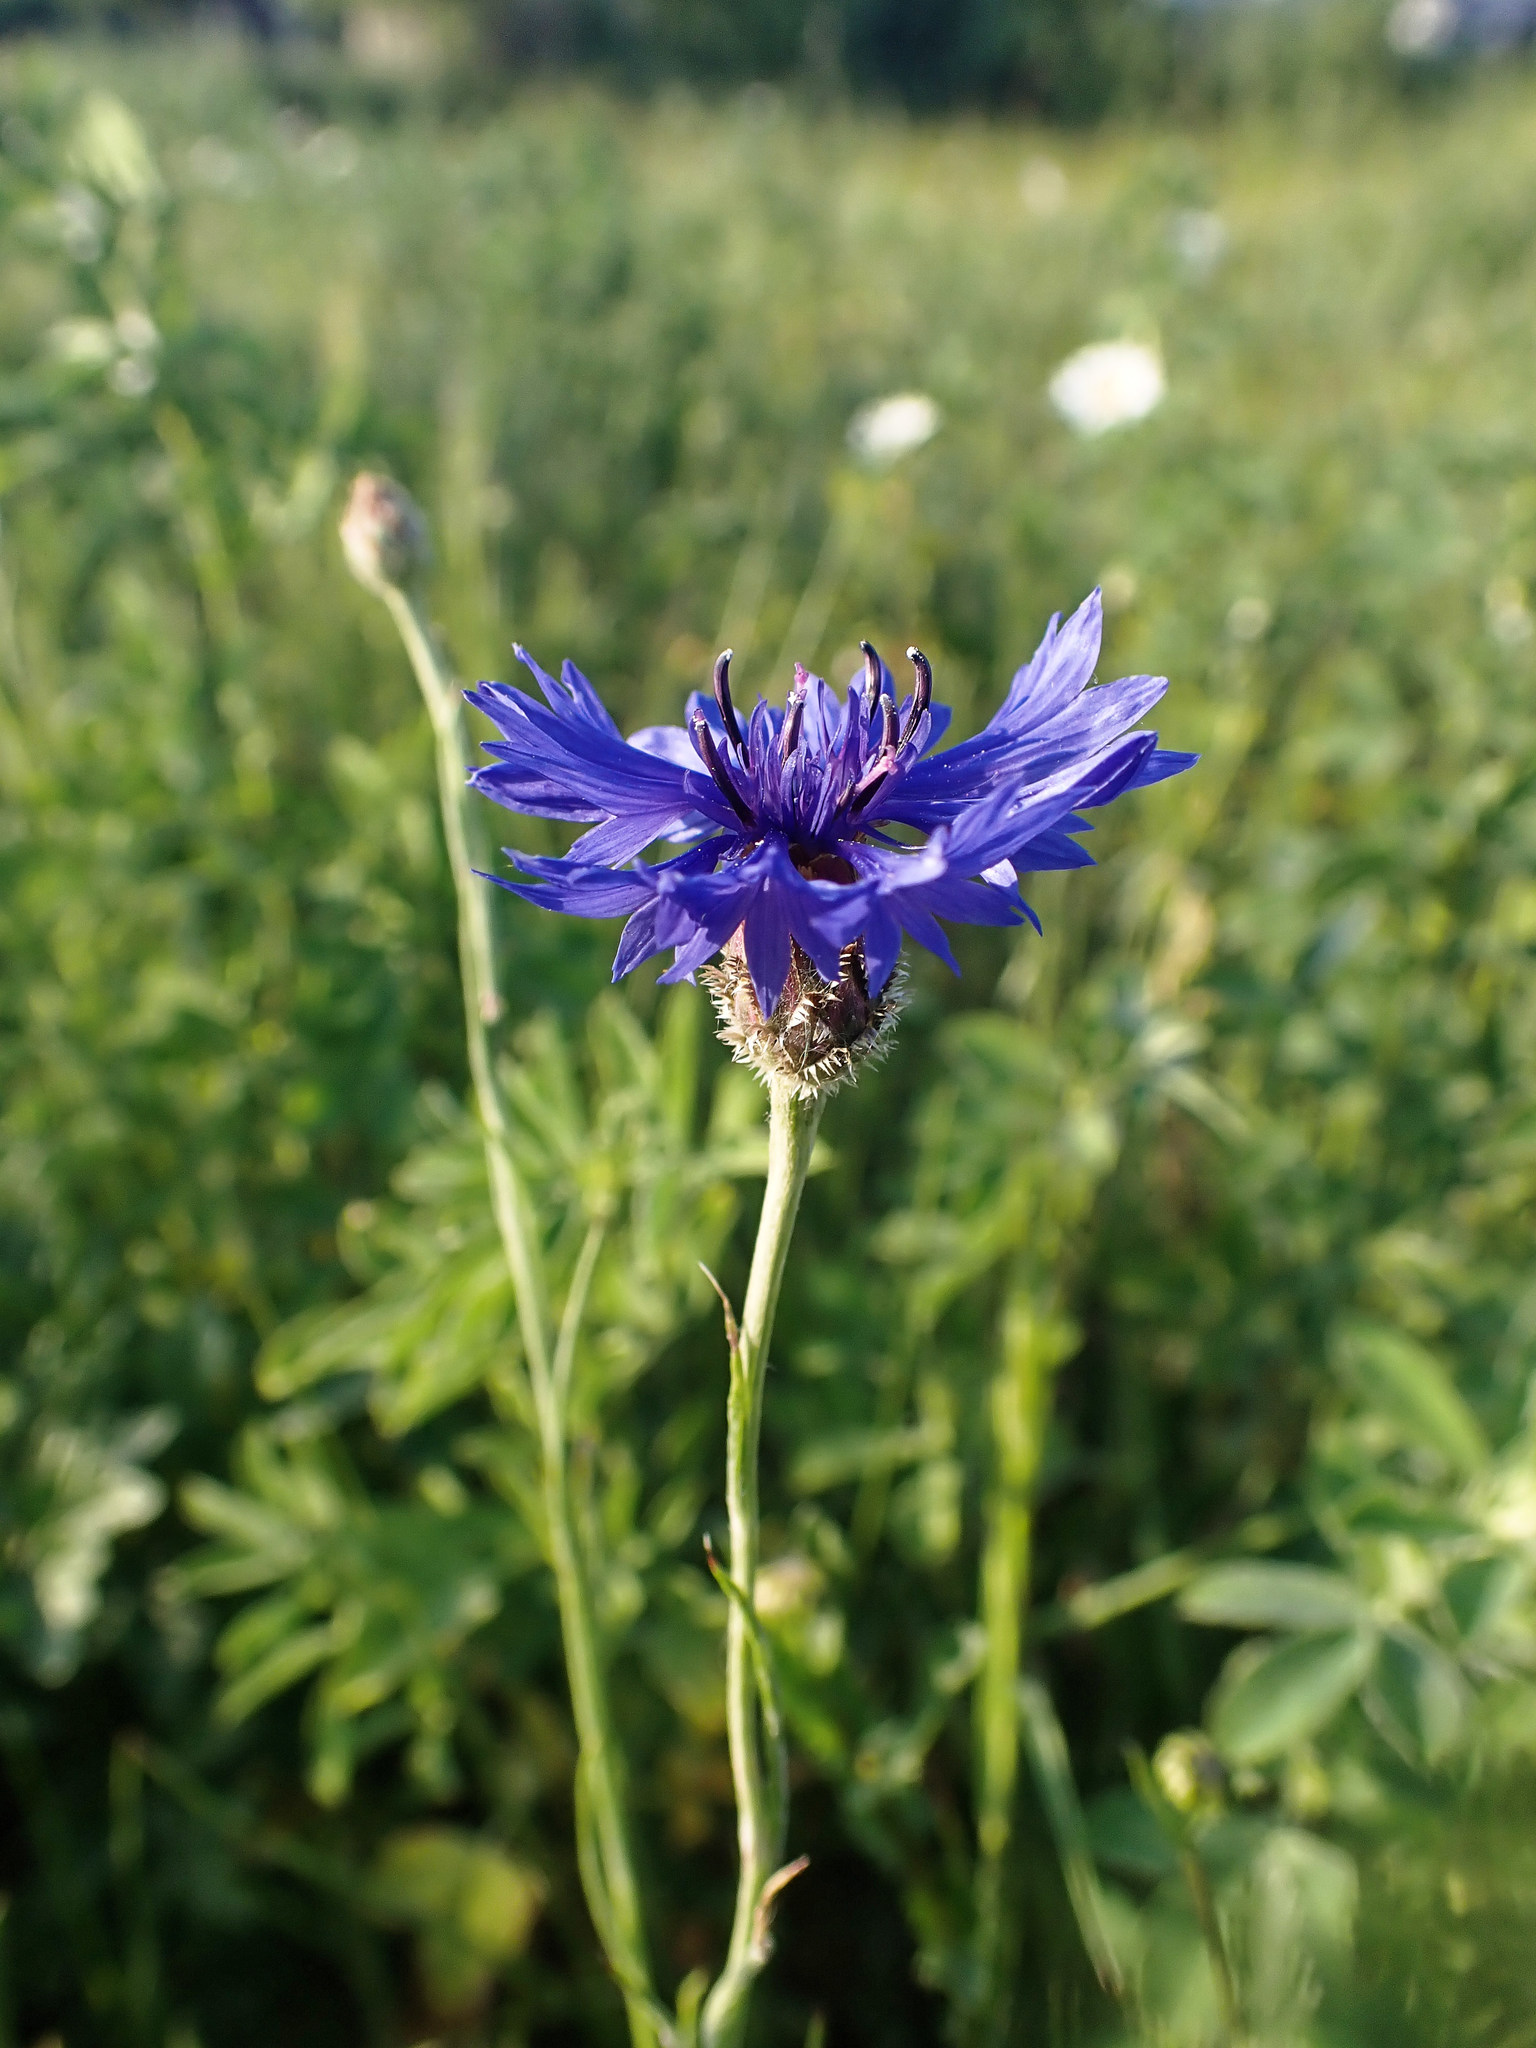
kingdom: Plantae
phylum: Tracheophyta
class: Magnoliopsida
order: Asterales
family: Asteraceae
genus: Centaurea
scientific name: Centaurea cyanus
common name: Cornflower
